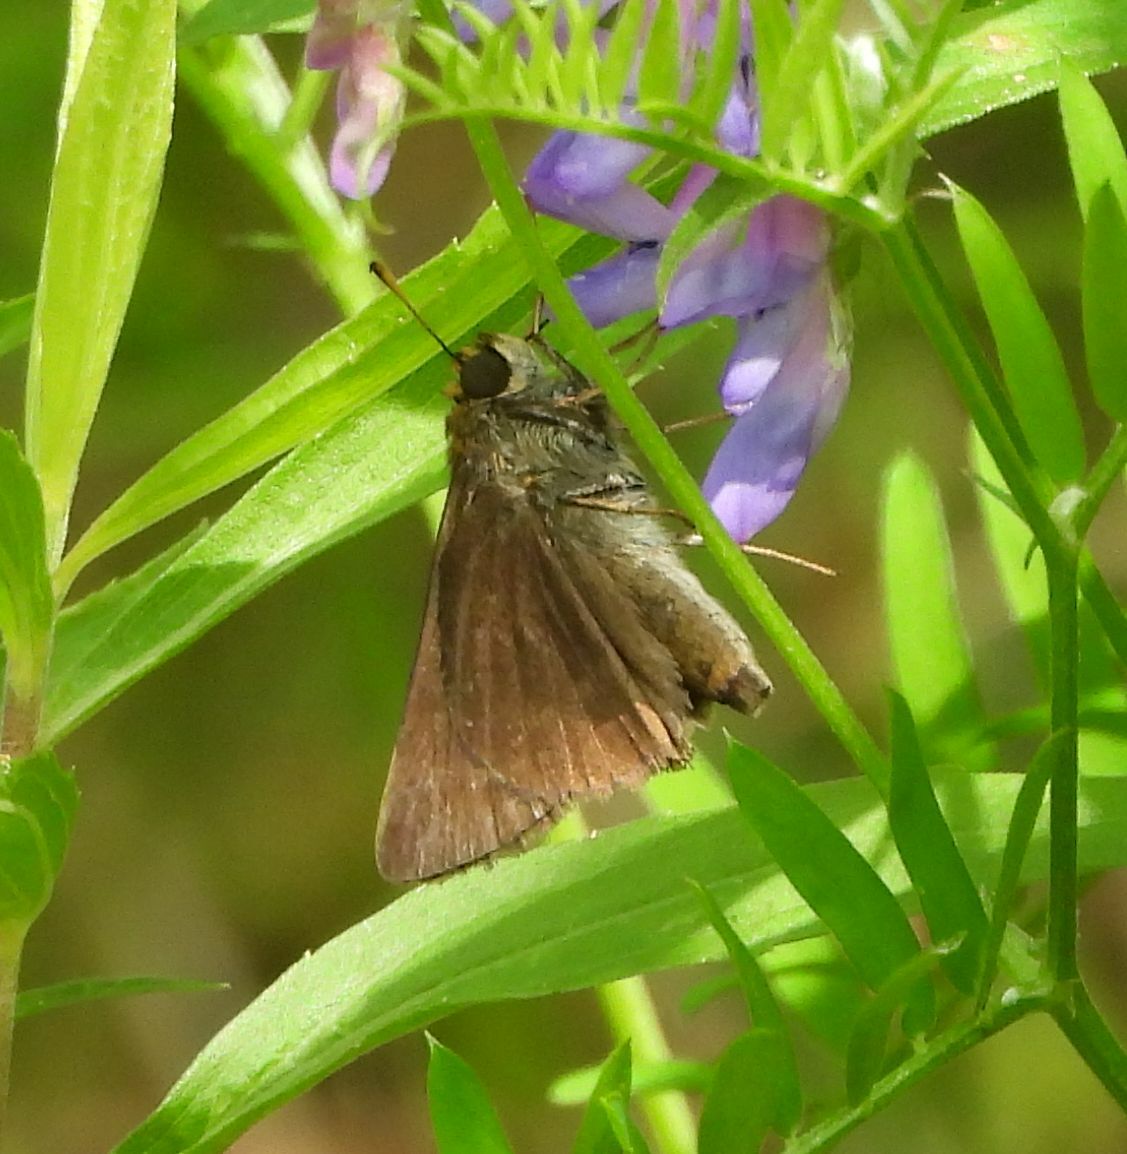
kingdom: Animalia
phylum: Arthropoda
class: Insecta
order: Lepidoptera
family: Hesperiidae
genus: Euphyes
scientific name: Euphyes vestris
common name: Dun skipper
